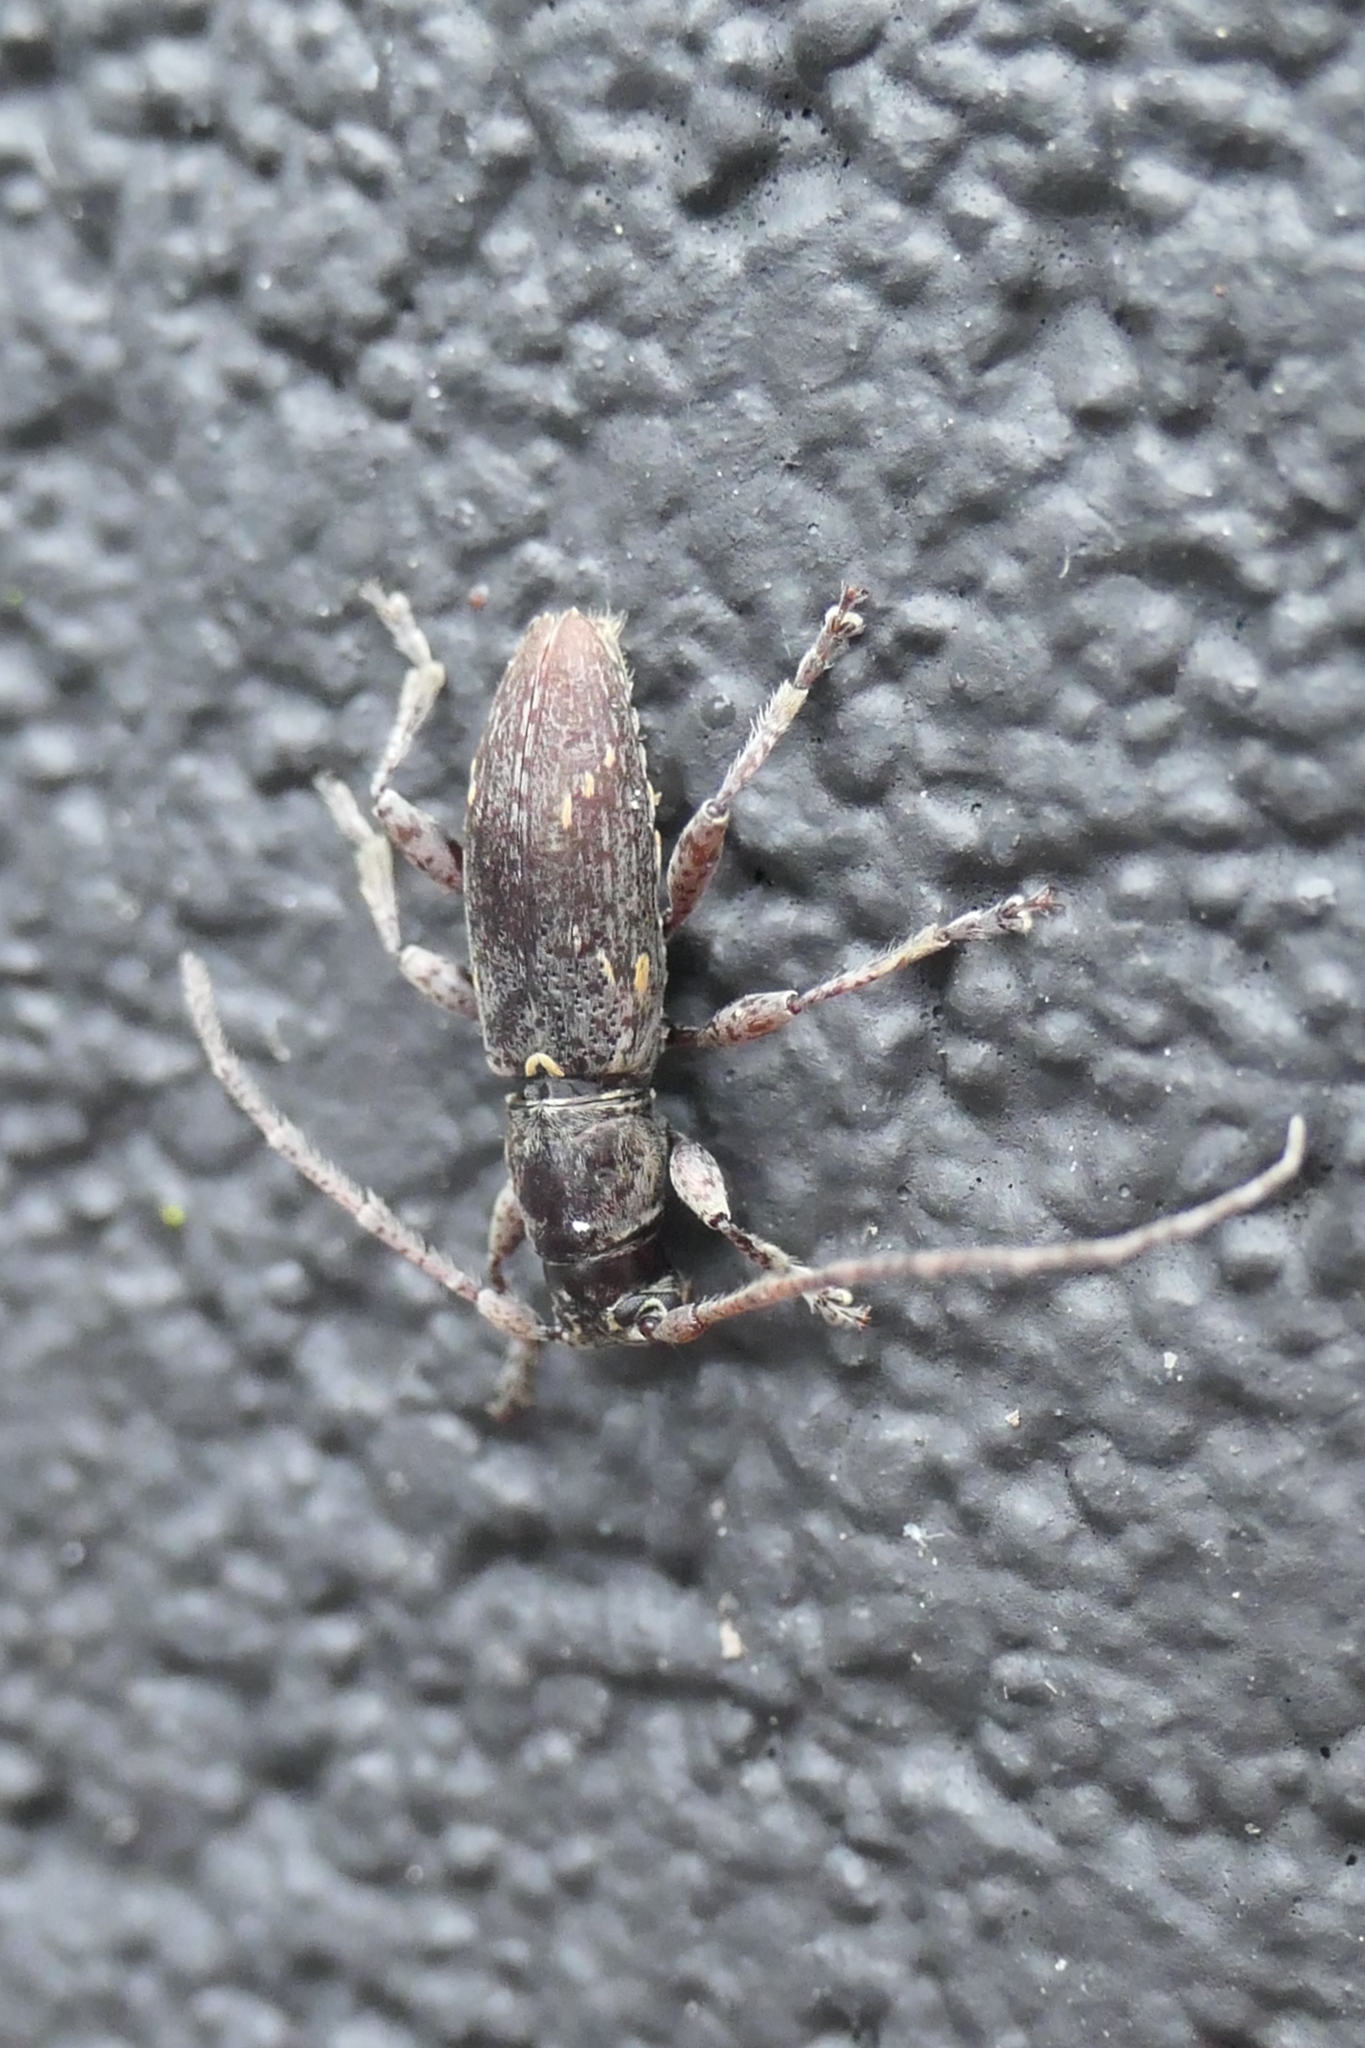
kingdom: Animalia
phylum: Arthropoda
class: Insecta
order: Coleoptera
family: Cerambycidae
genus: Xylotoles
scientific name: Xylotoles griseus
